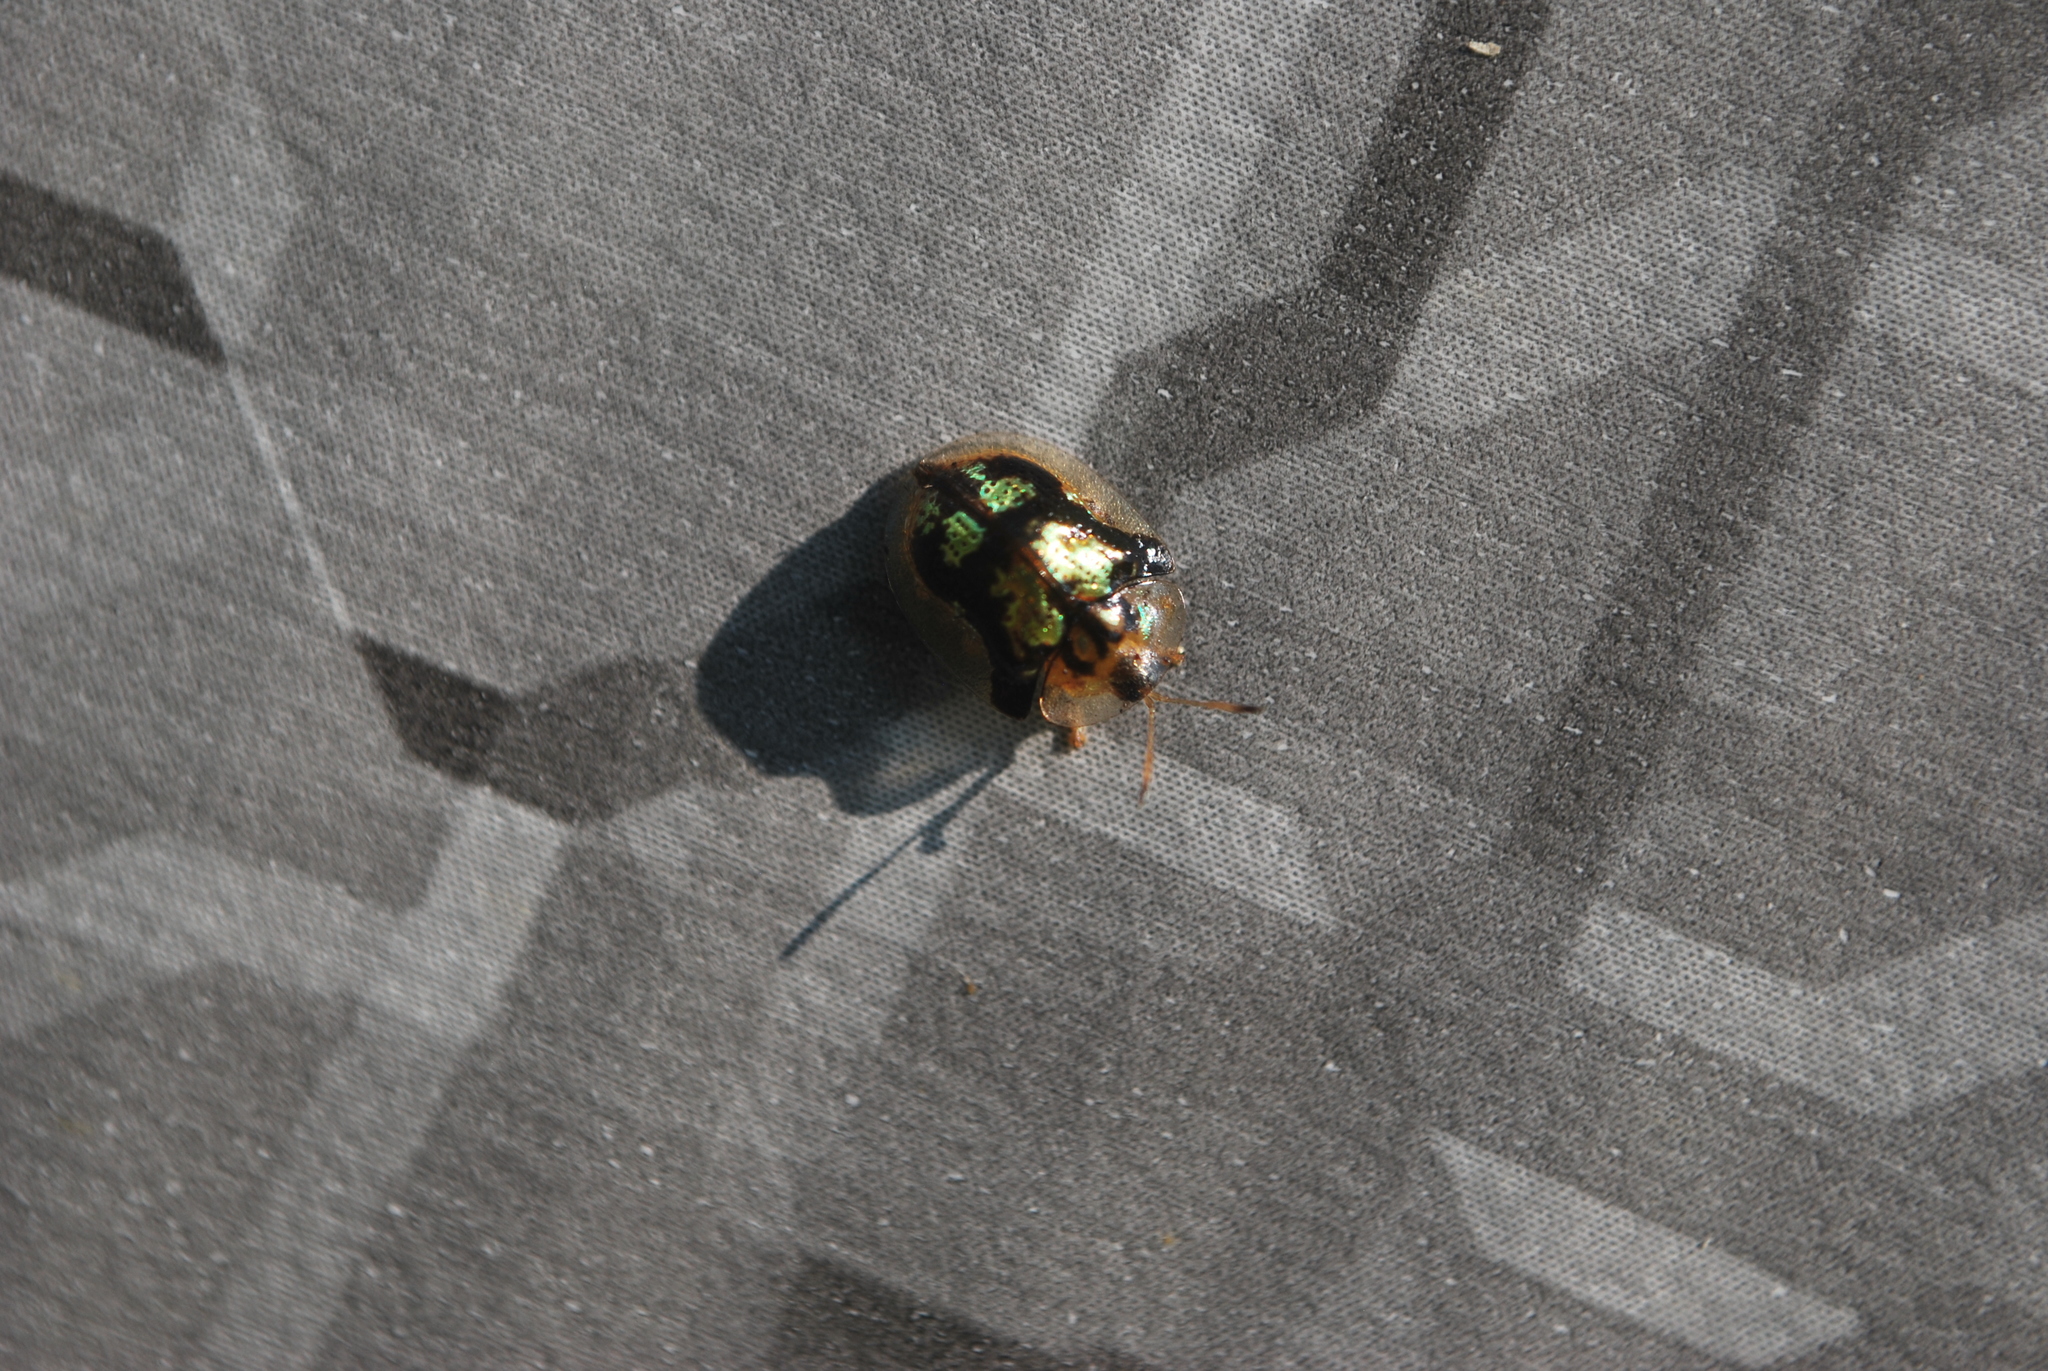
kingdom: Animalia
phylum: Arthropoda
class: Insecta
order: Coleoptera
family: Chrysomelidae
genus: Deloyala
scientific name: Deloyala guttata
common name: Mottled tortoise beetle
